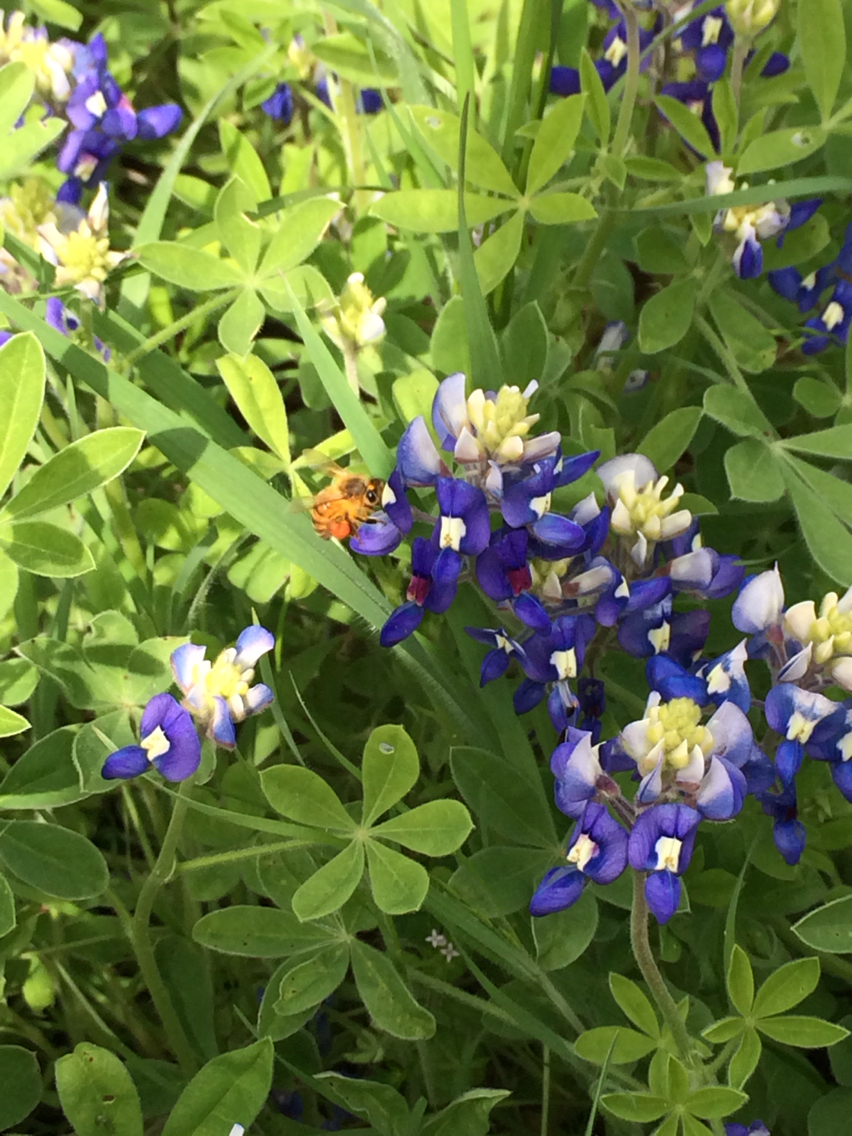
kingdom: Animalia
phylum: Arthropoda
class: Insecta
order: Hymenoptera
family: Apidae
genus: Apis
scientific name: Apis mellifera
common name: Honey bee
